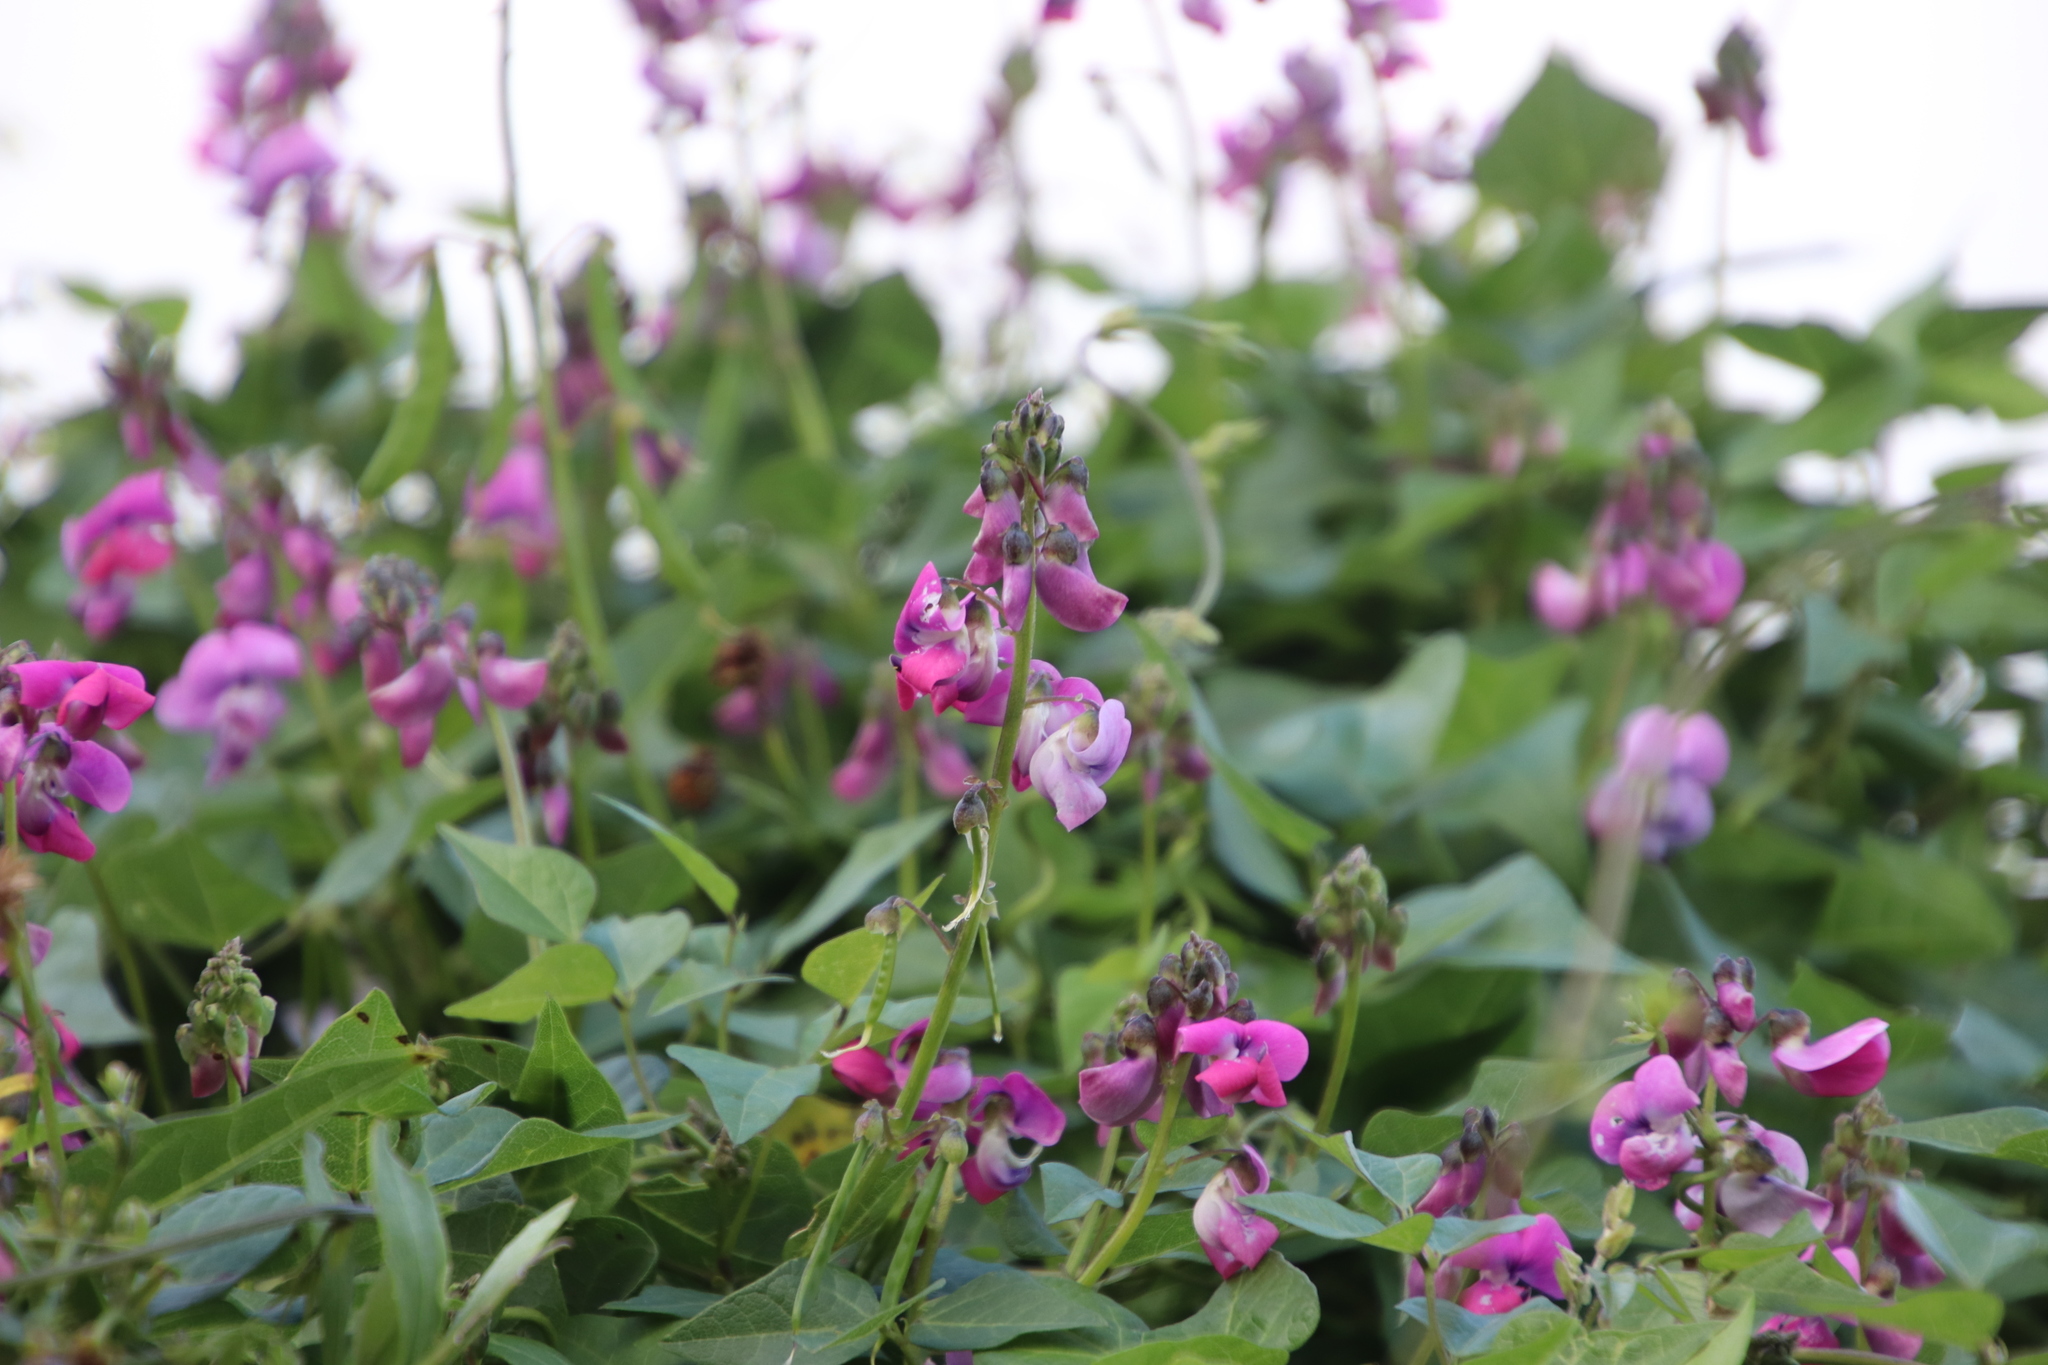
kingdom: Plantae
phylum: Tracheophyta
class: Magnoliopsida
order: Fabales
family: Fabaceae
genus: Dipogon
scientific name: Dipogon lignosus
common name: Okie bean
